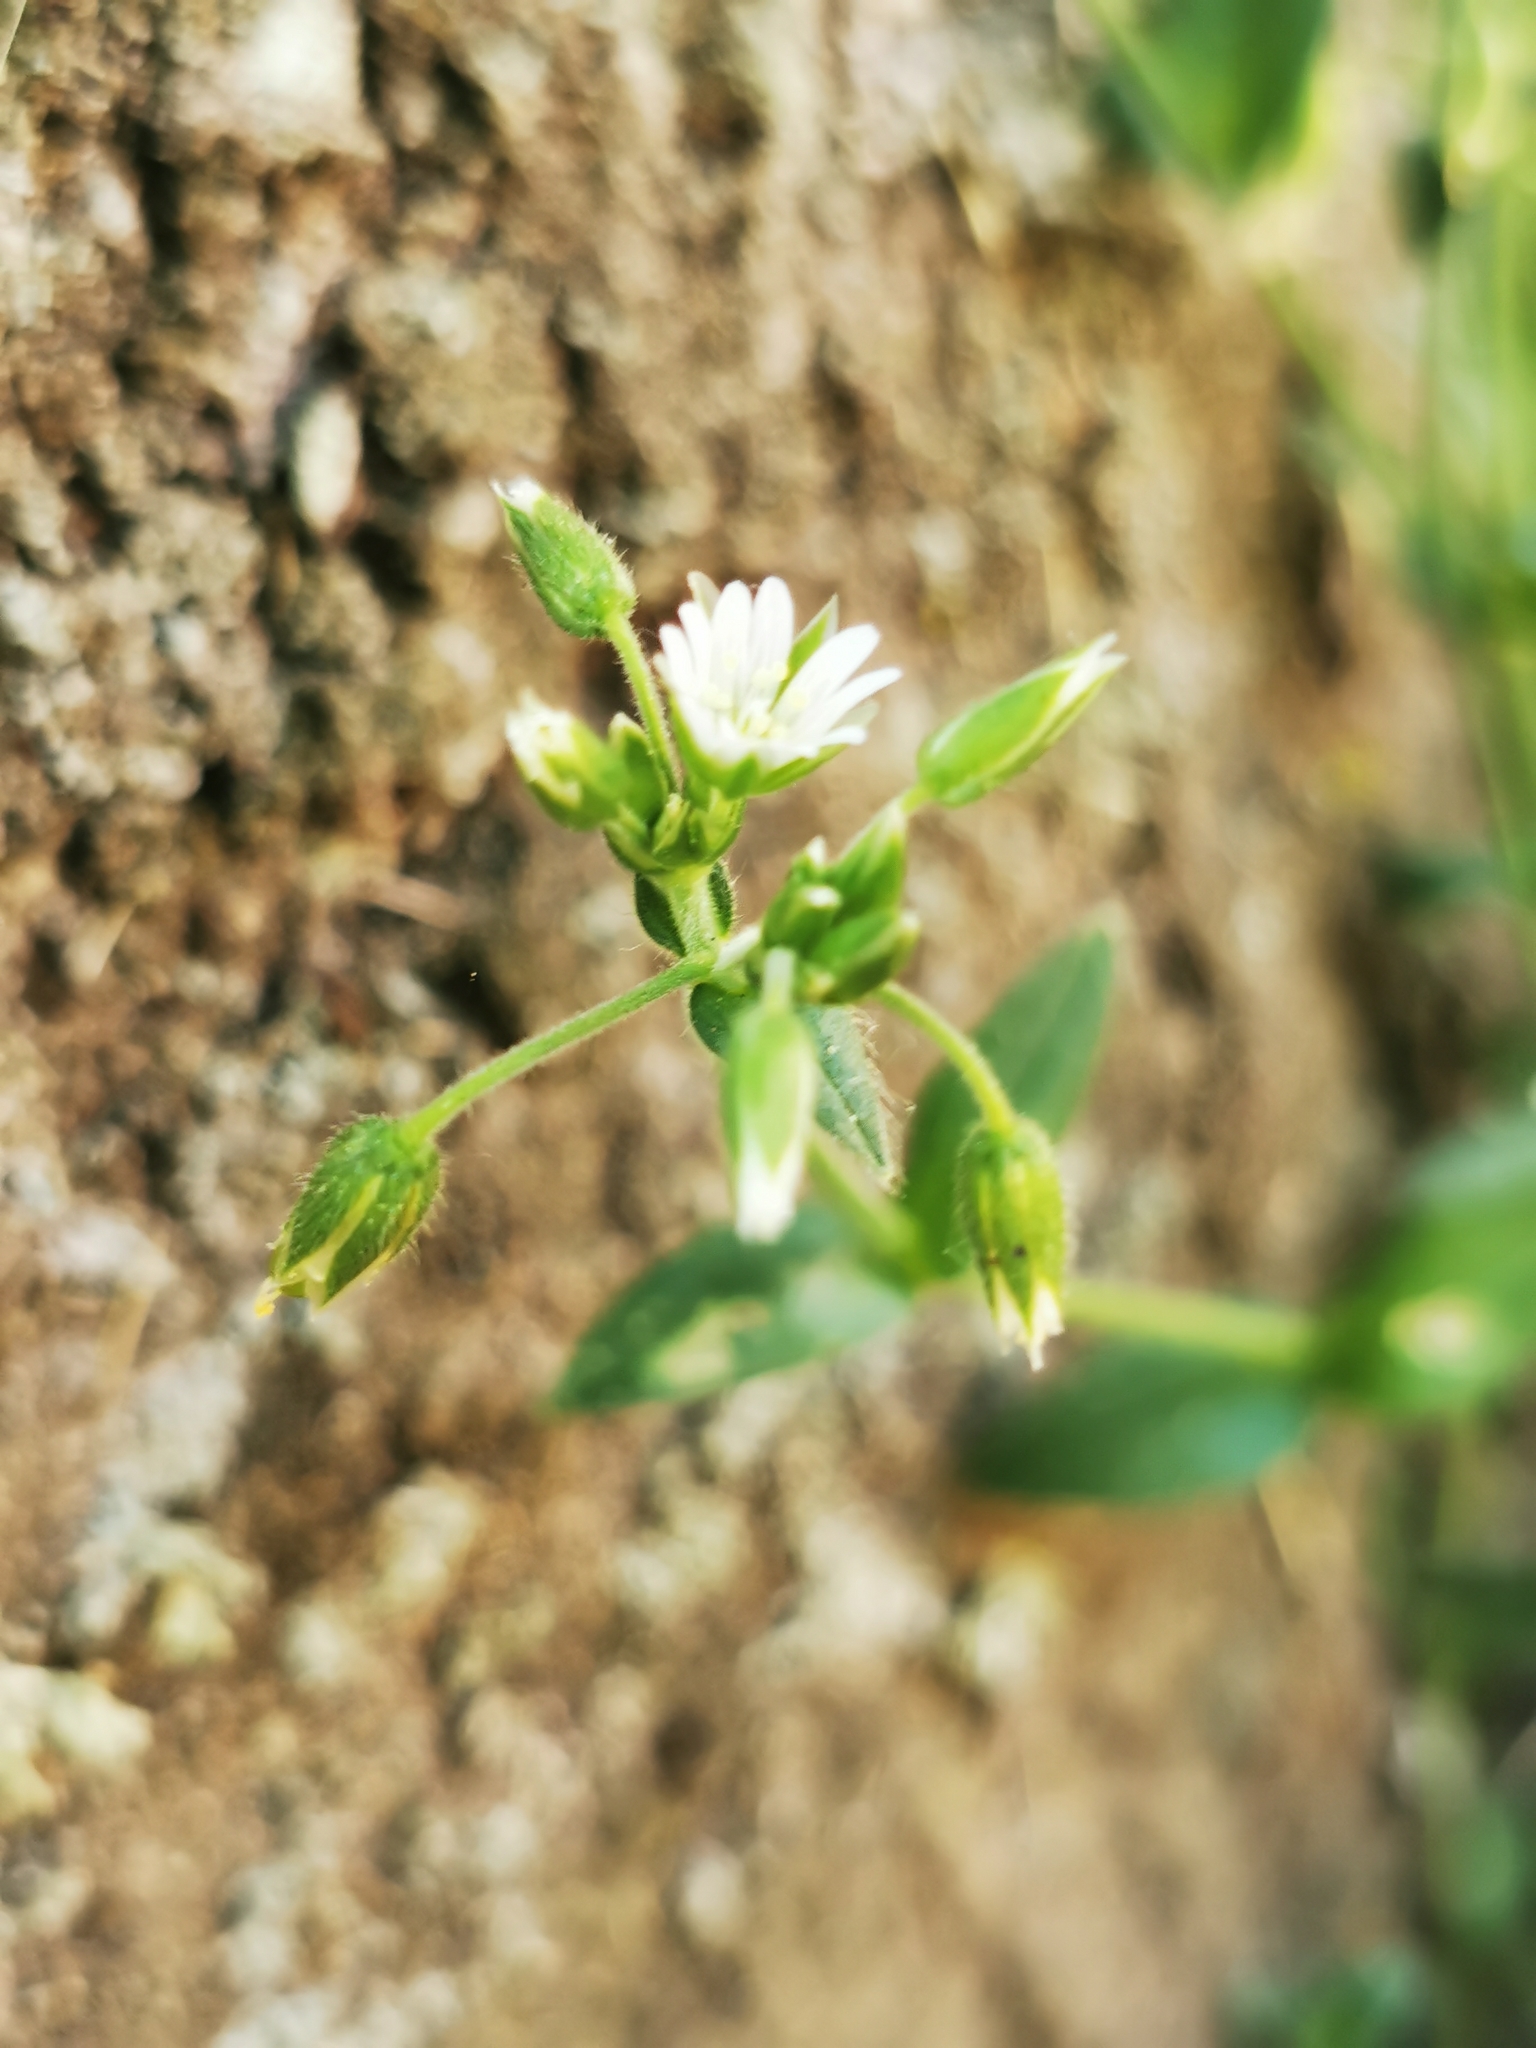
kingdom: Plantae
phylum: Tracheophyta
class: Magnoliopsida
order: Caryophyllales
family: Caryophyllaceae
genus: Cerastium
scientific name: Cerastium fontanum
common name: Common mouse-ear
